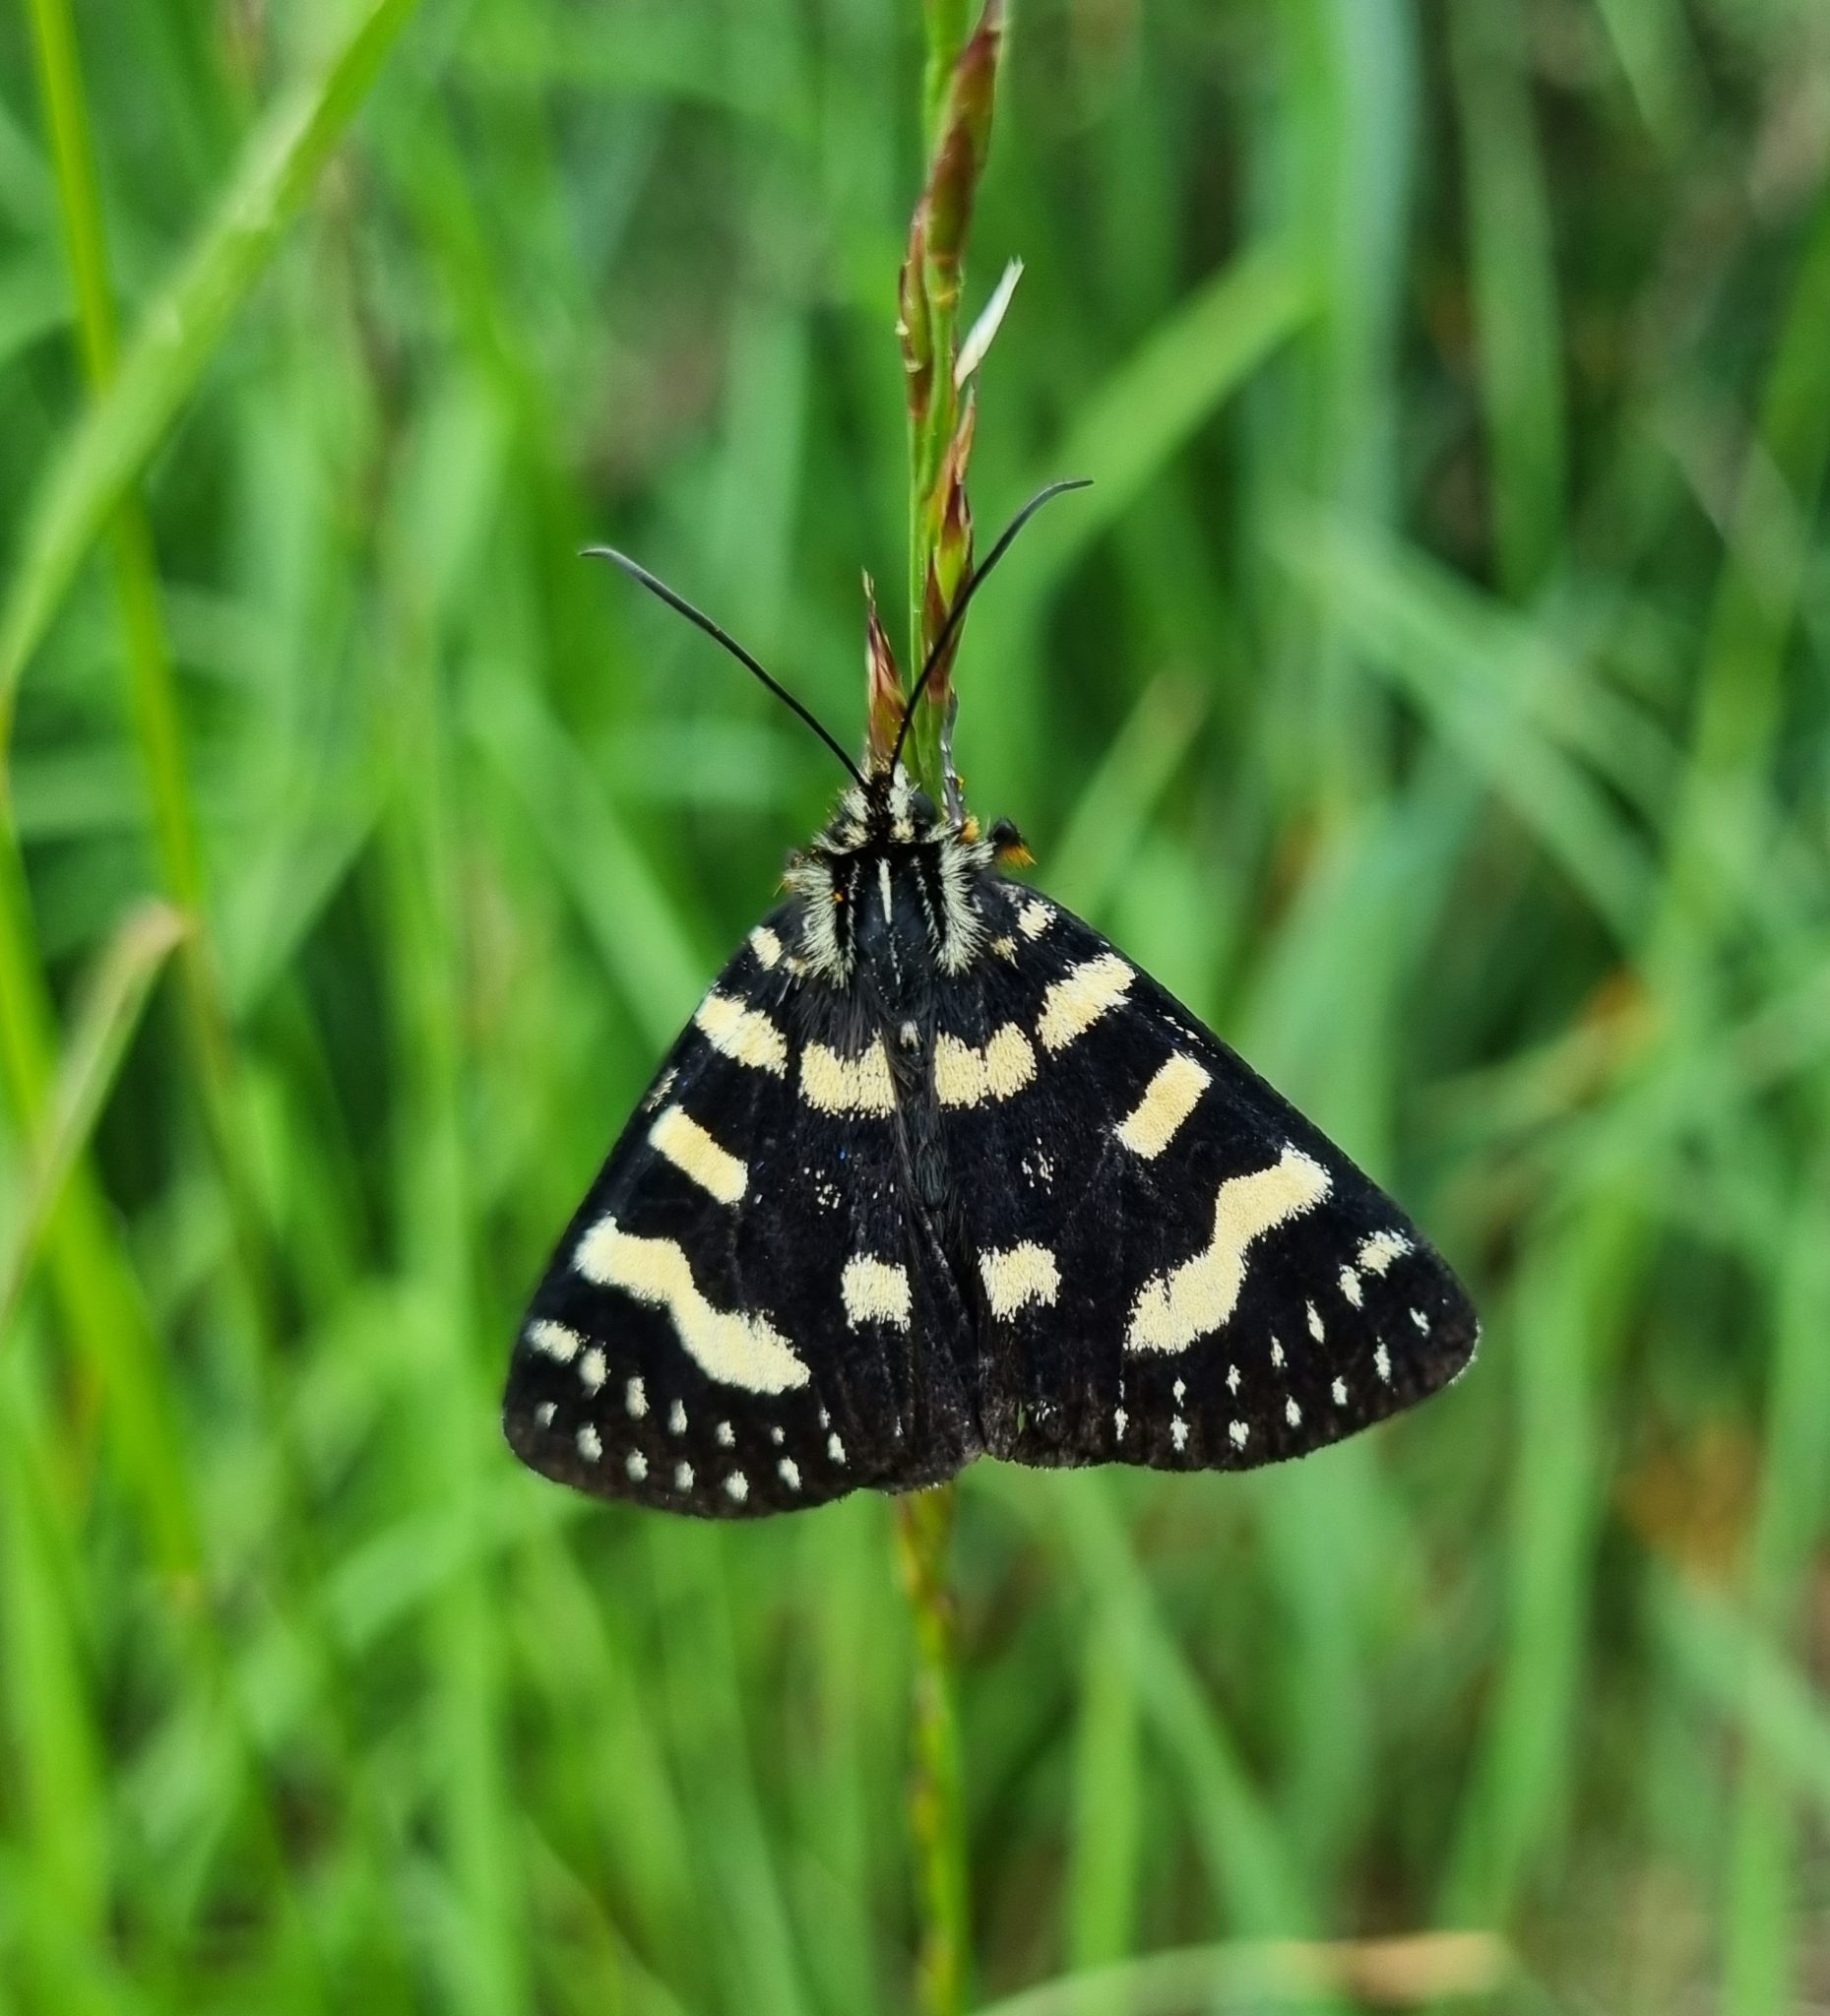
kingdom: Animalia
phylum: Arthropoda
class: Insecta
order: Lepidoptera
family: Noctuidae
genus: Phalaenoides
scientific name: Phalaenoides tristifica
